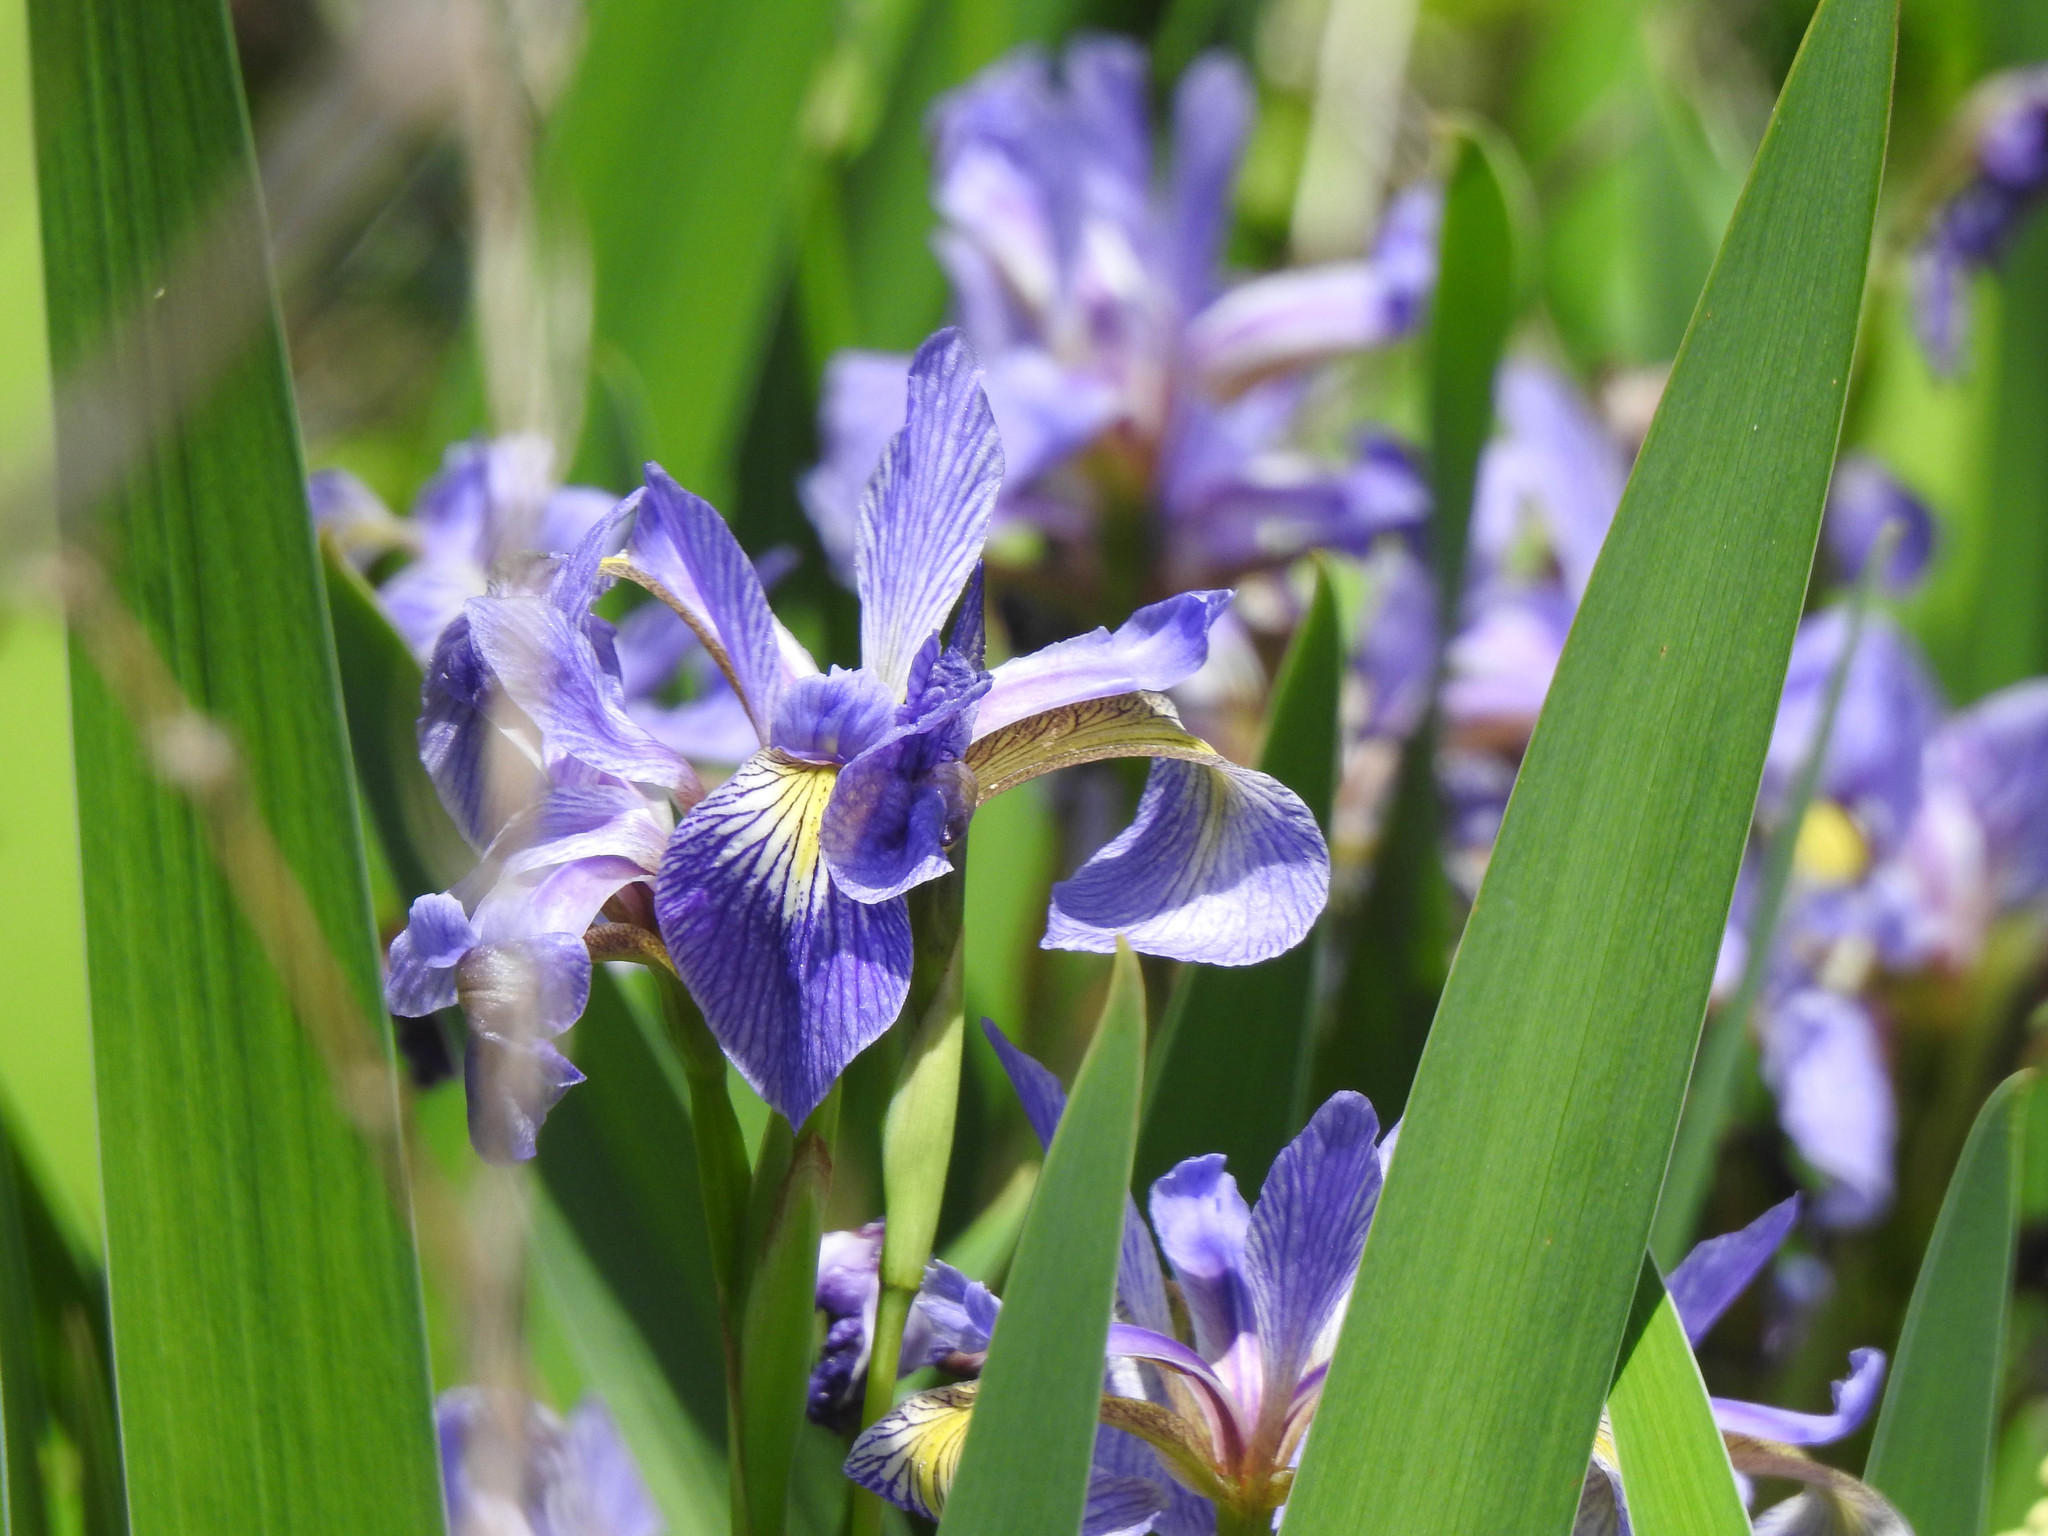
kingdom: Plantae
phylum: Tracheophyta
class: Liliopsida
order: Asparagales
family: Iridaceae
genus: Iris
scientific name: Iris versicolor
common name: Purple iris
